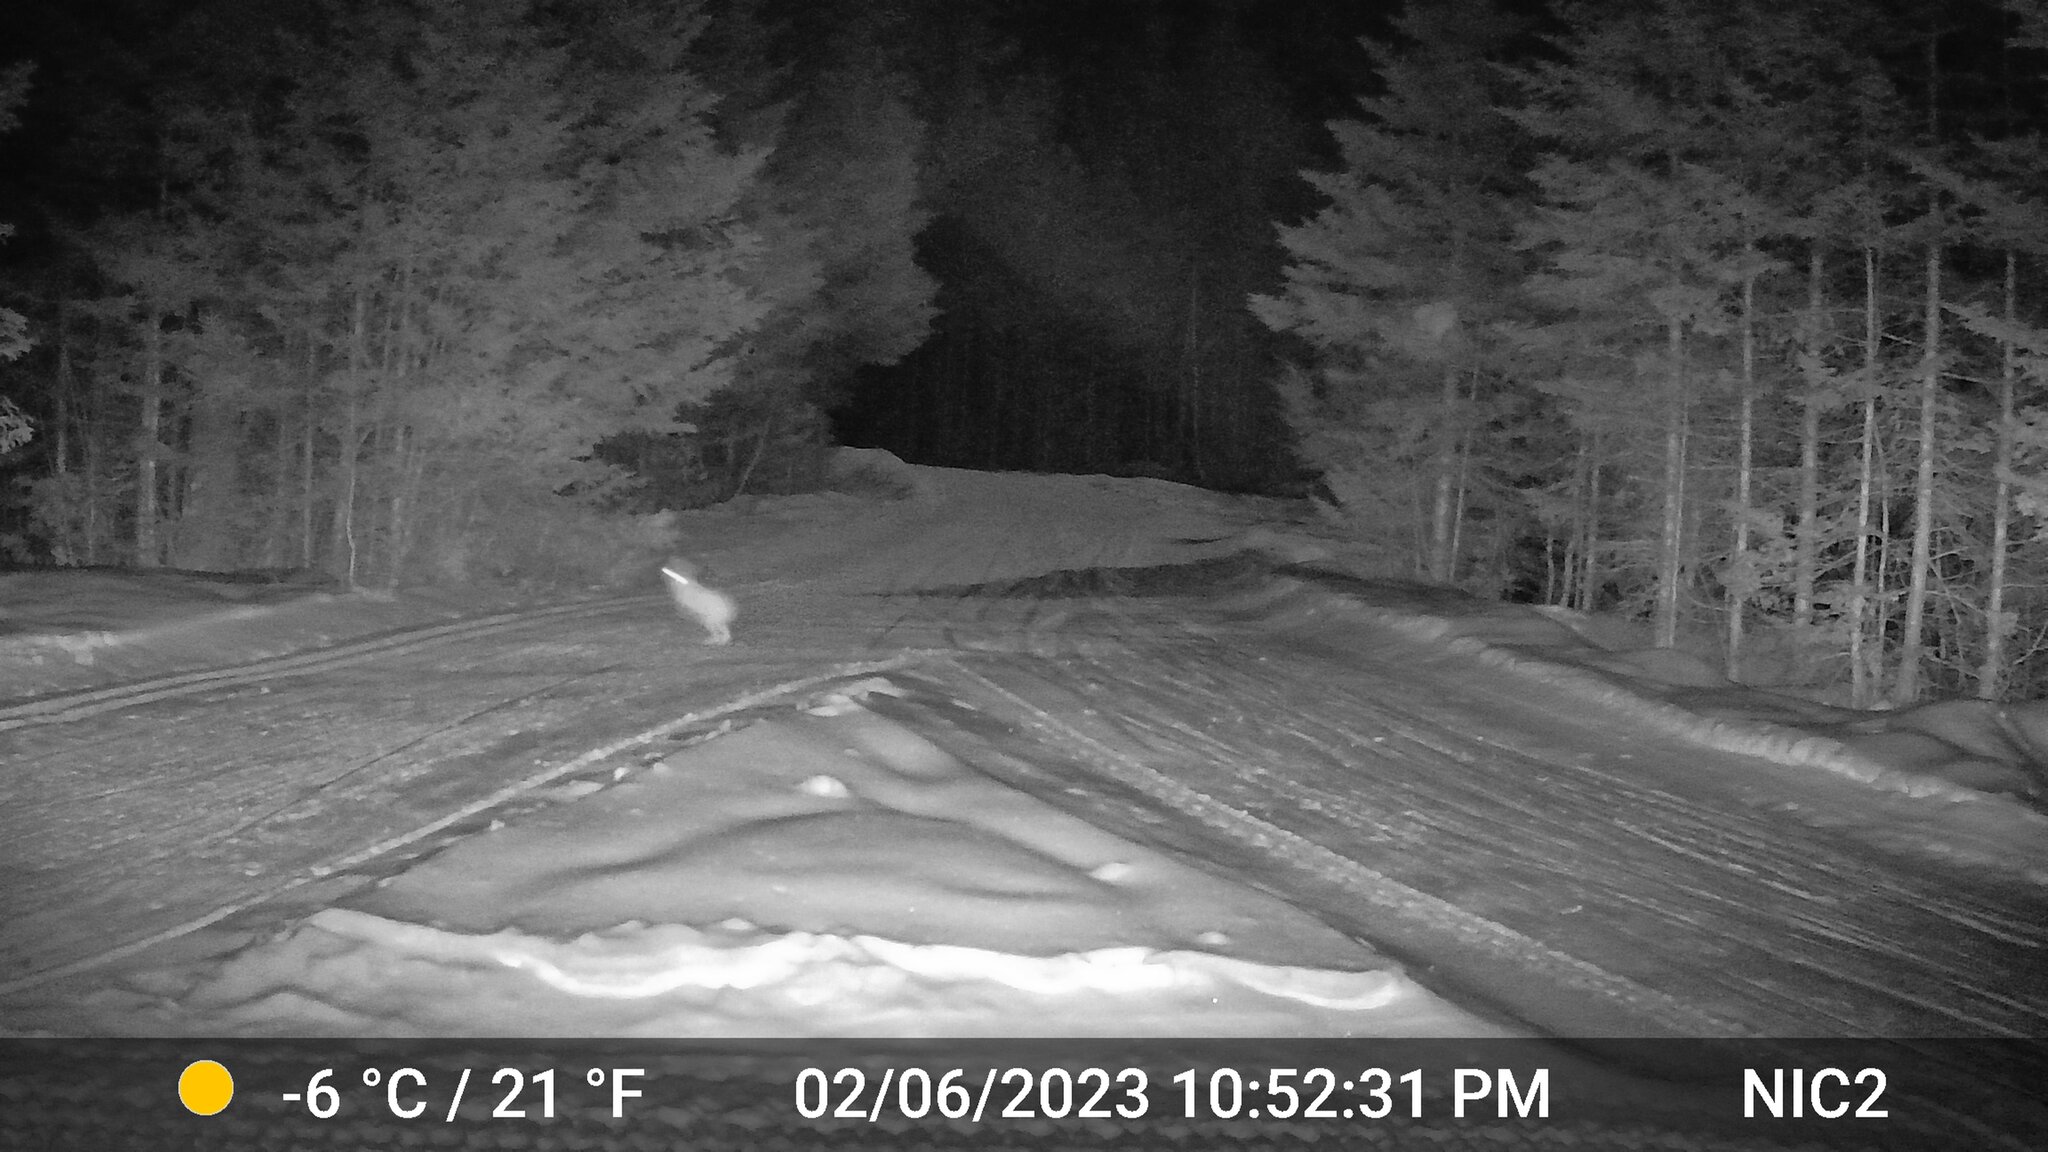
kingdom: Animalia
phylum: Chordata
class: Mammalia
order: Lagomorpha
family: Leporidae
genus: Lepus
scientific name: Lepus americanus
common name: Snowshoe hare
